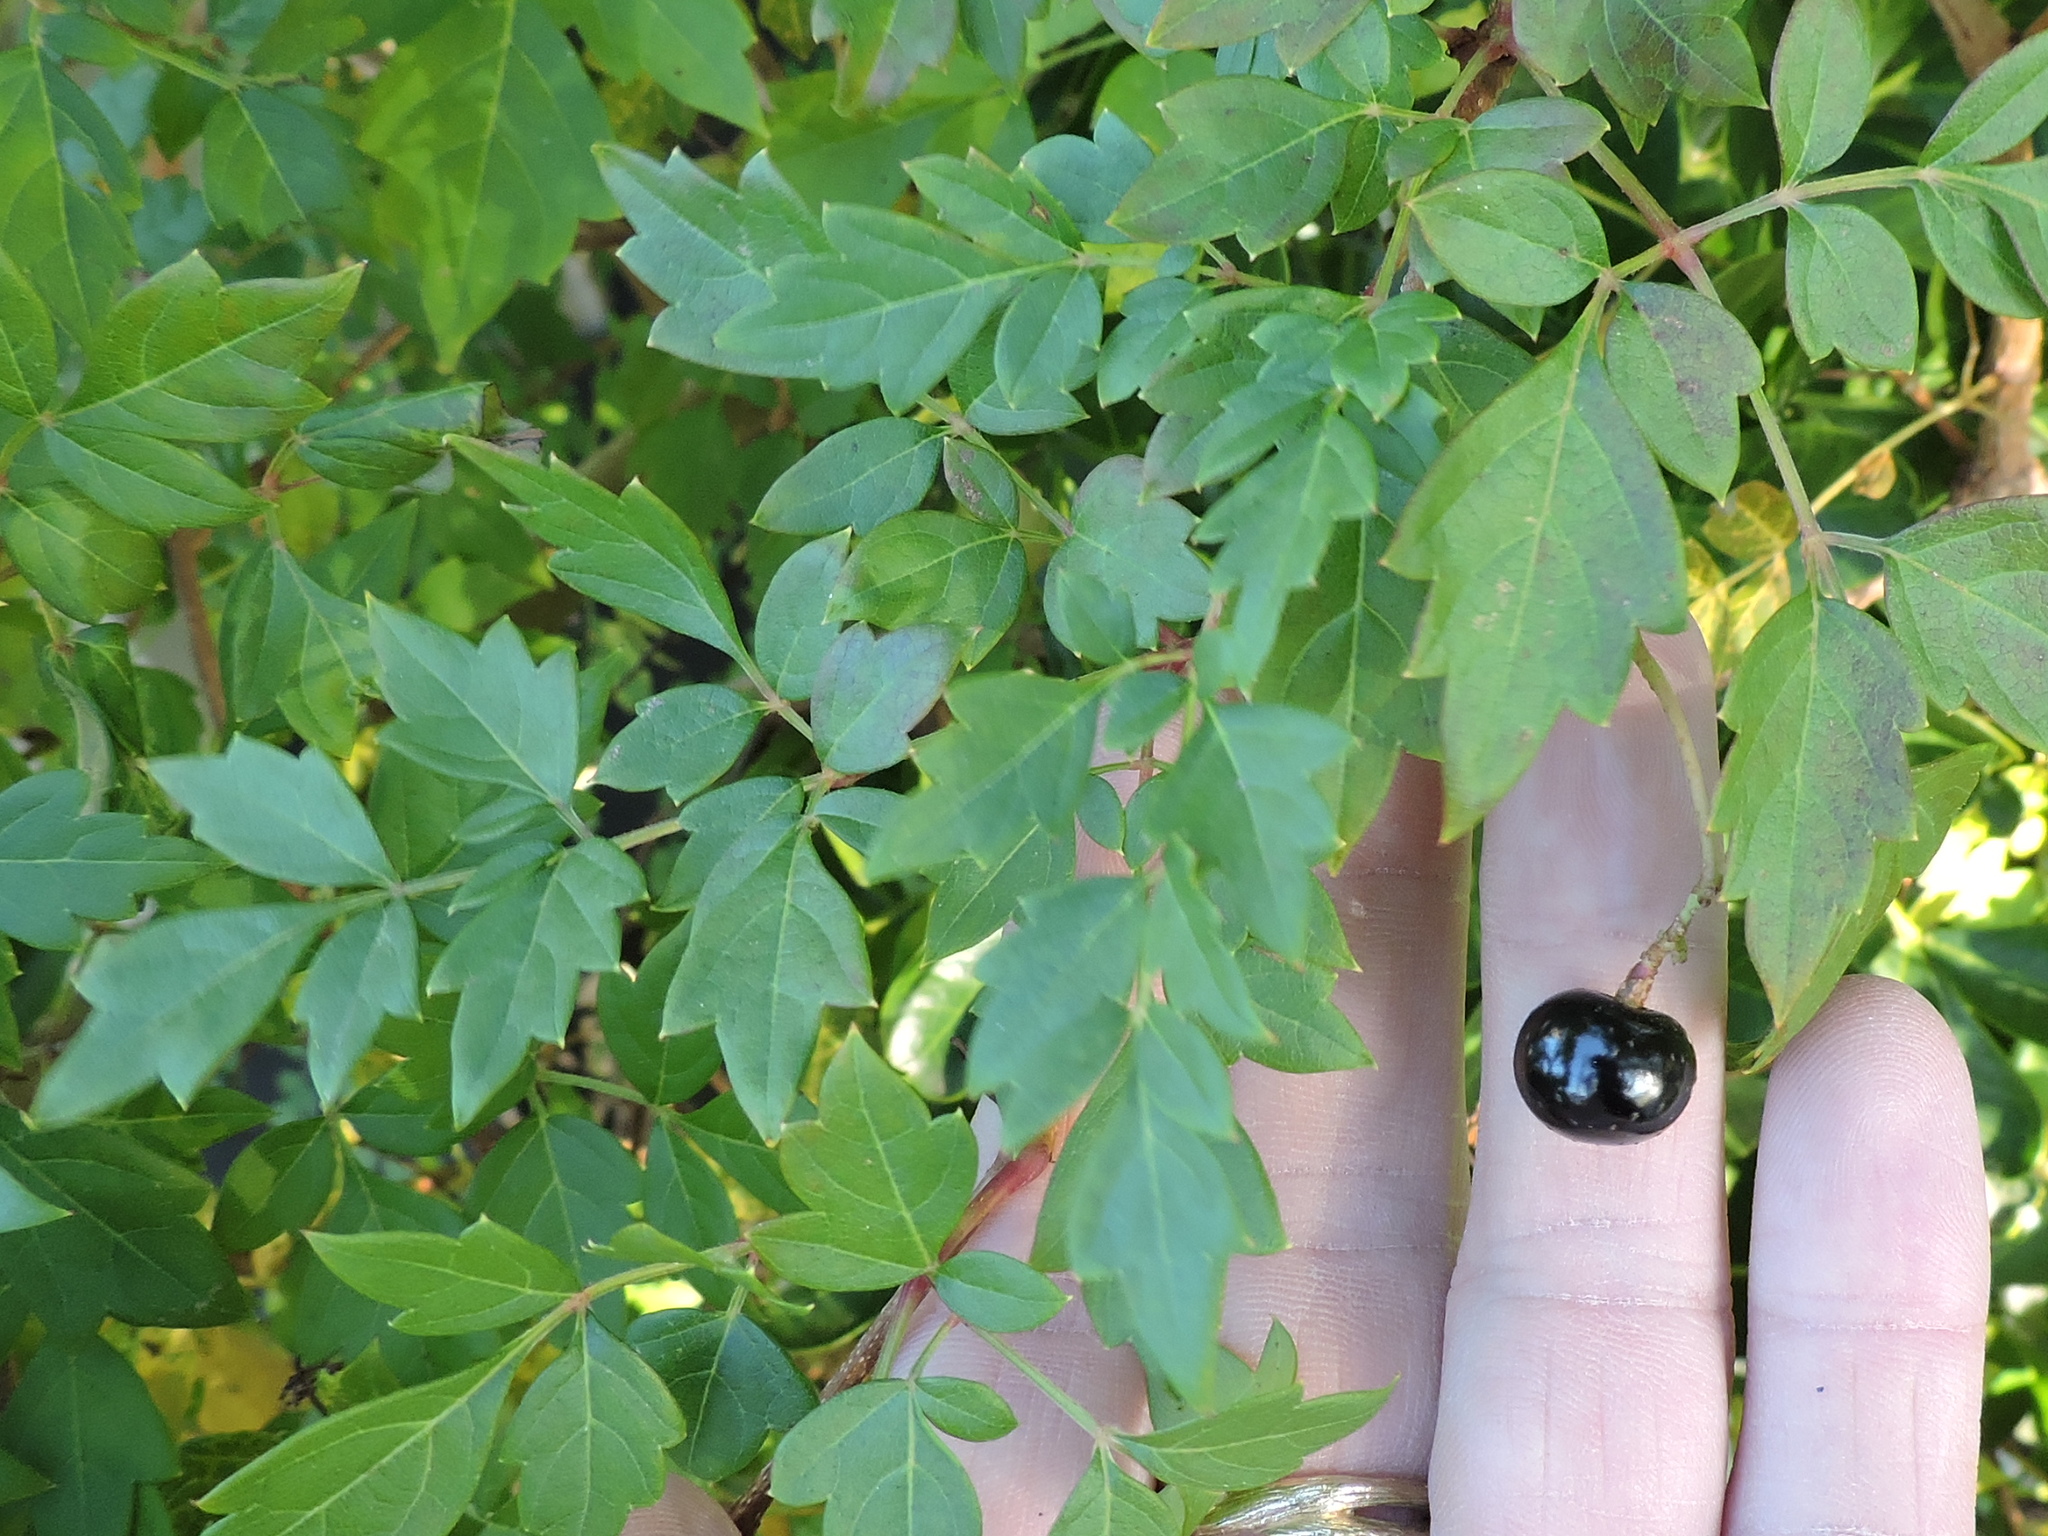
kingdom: Plantae
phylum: Tracheophyta
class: Magnoliopsida
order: Vitales
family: Vitaceae
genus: Nekemias
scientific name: Nekemias arborea
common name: Peppervine
